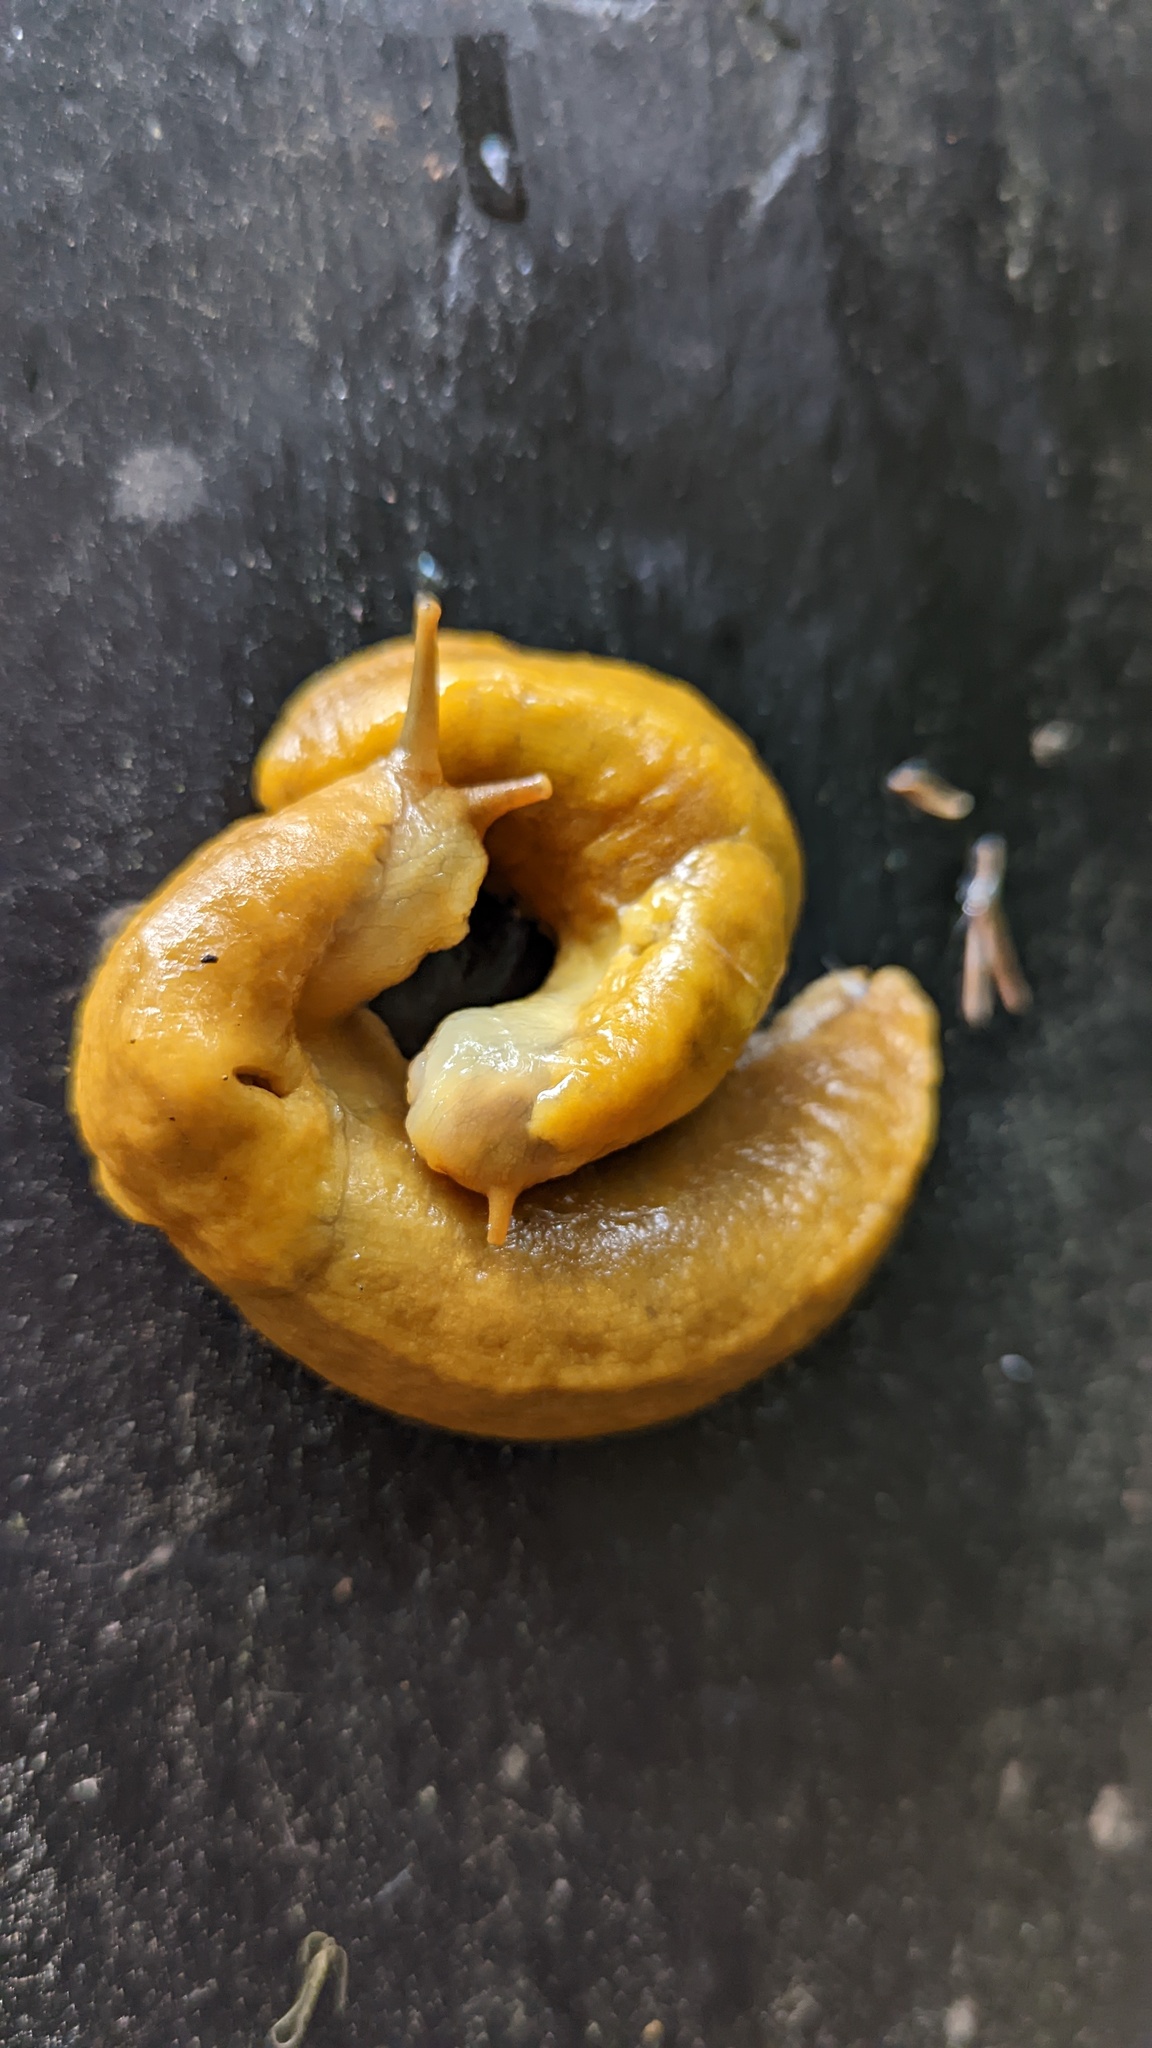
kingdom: Animalia
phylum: Mollusca
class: Gastropoda
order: Stylommatophora
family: Ariolimacidae
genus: Ariolimax
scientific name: Ariolimax columbianus
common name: Pacific banana slug
